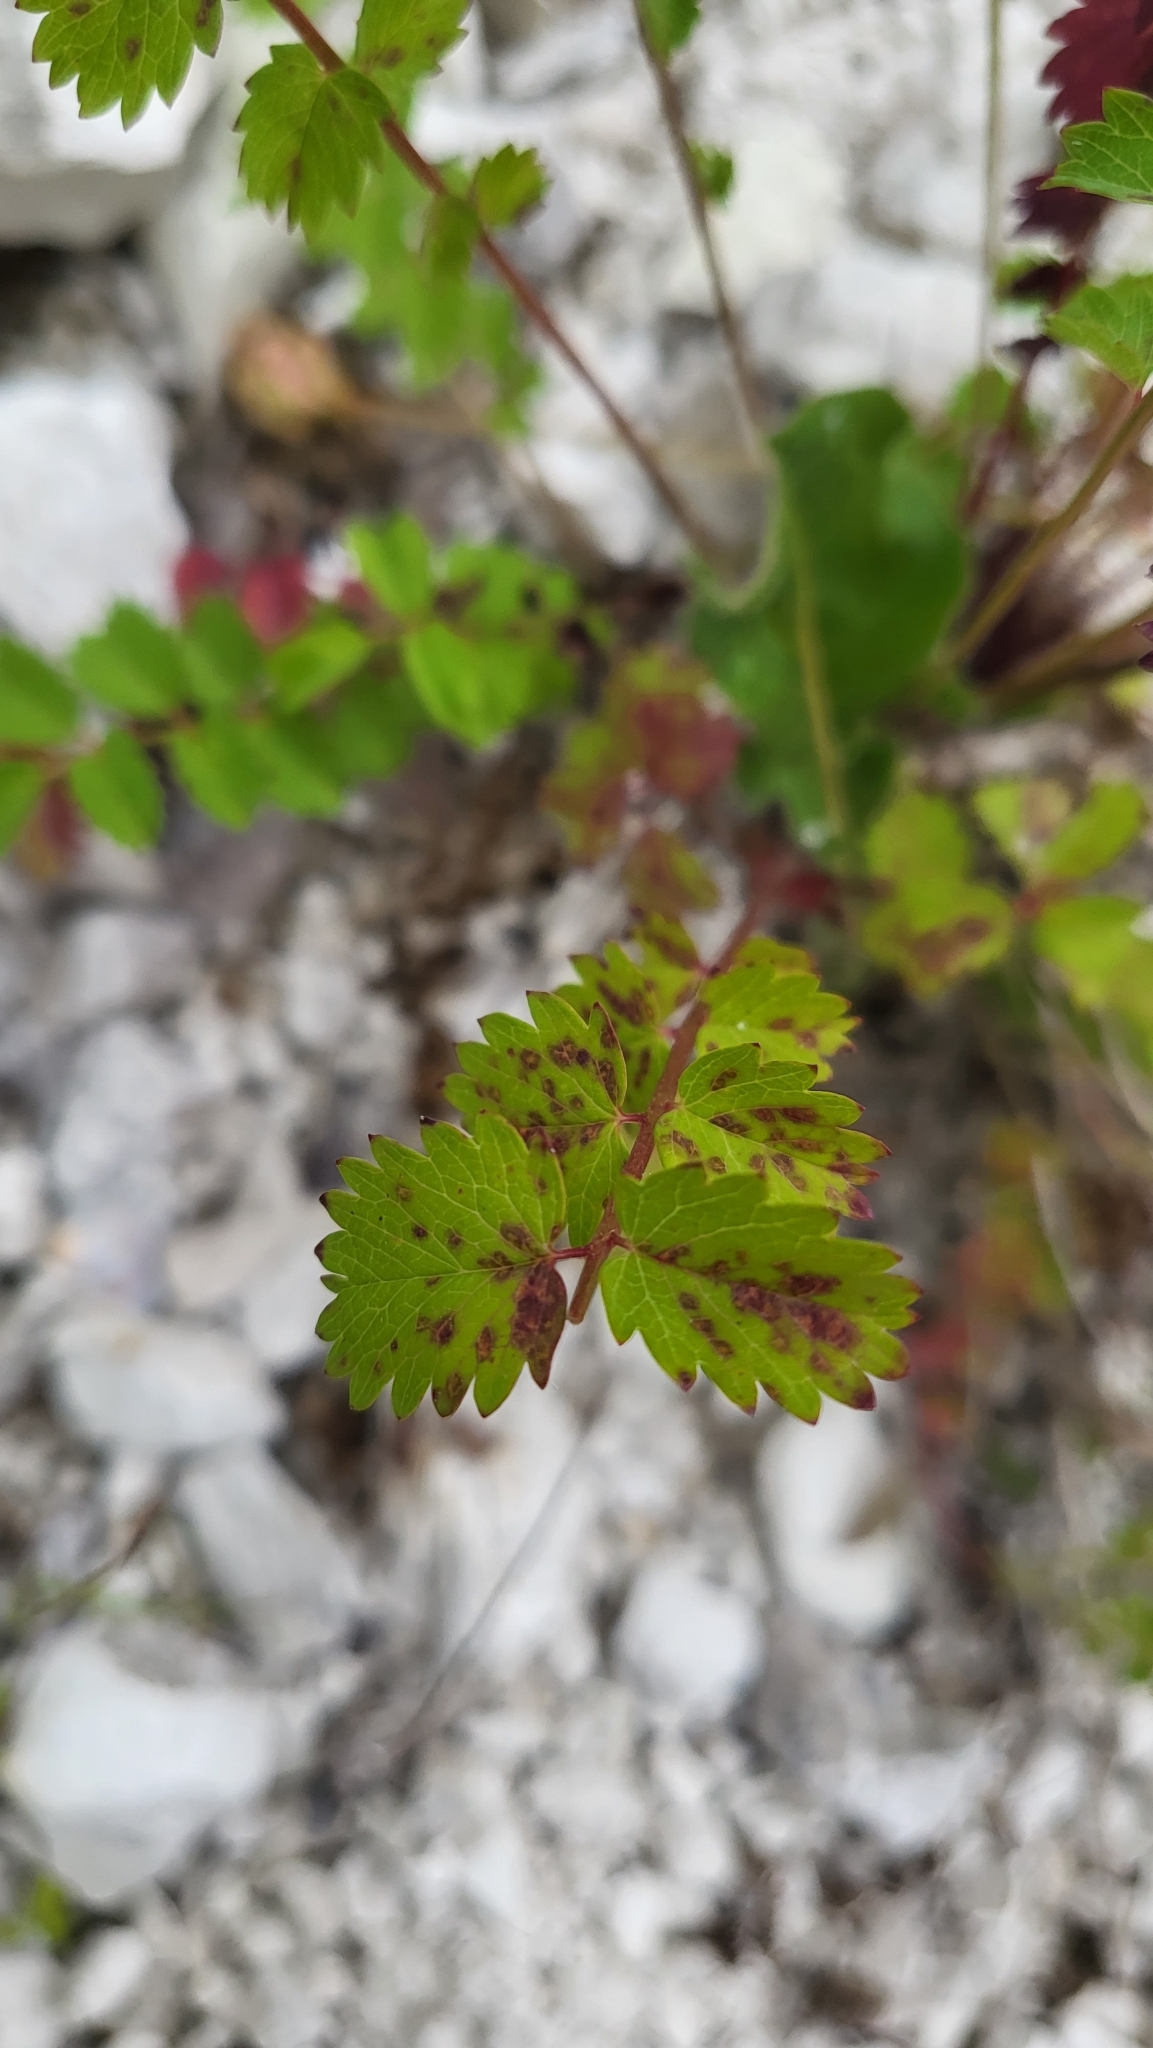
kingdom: Fungi
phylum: Basidiomycota
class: Pucciniomycetes
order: Pucciniales
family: Phragmidiaceae
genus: Phragmidium
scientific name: Phragmidium sanguisorbae
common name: Salad burnet rust
